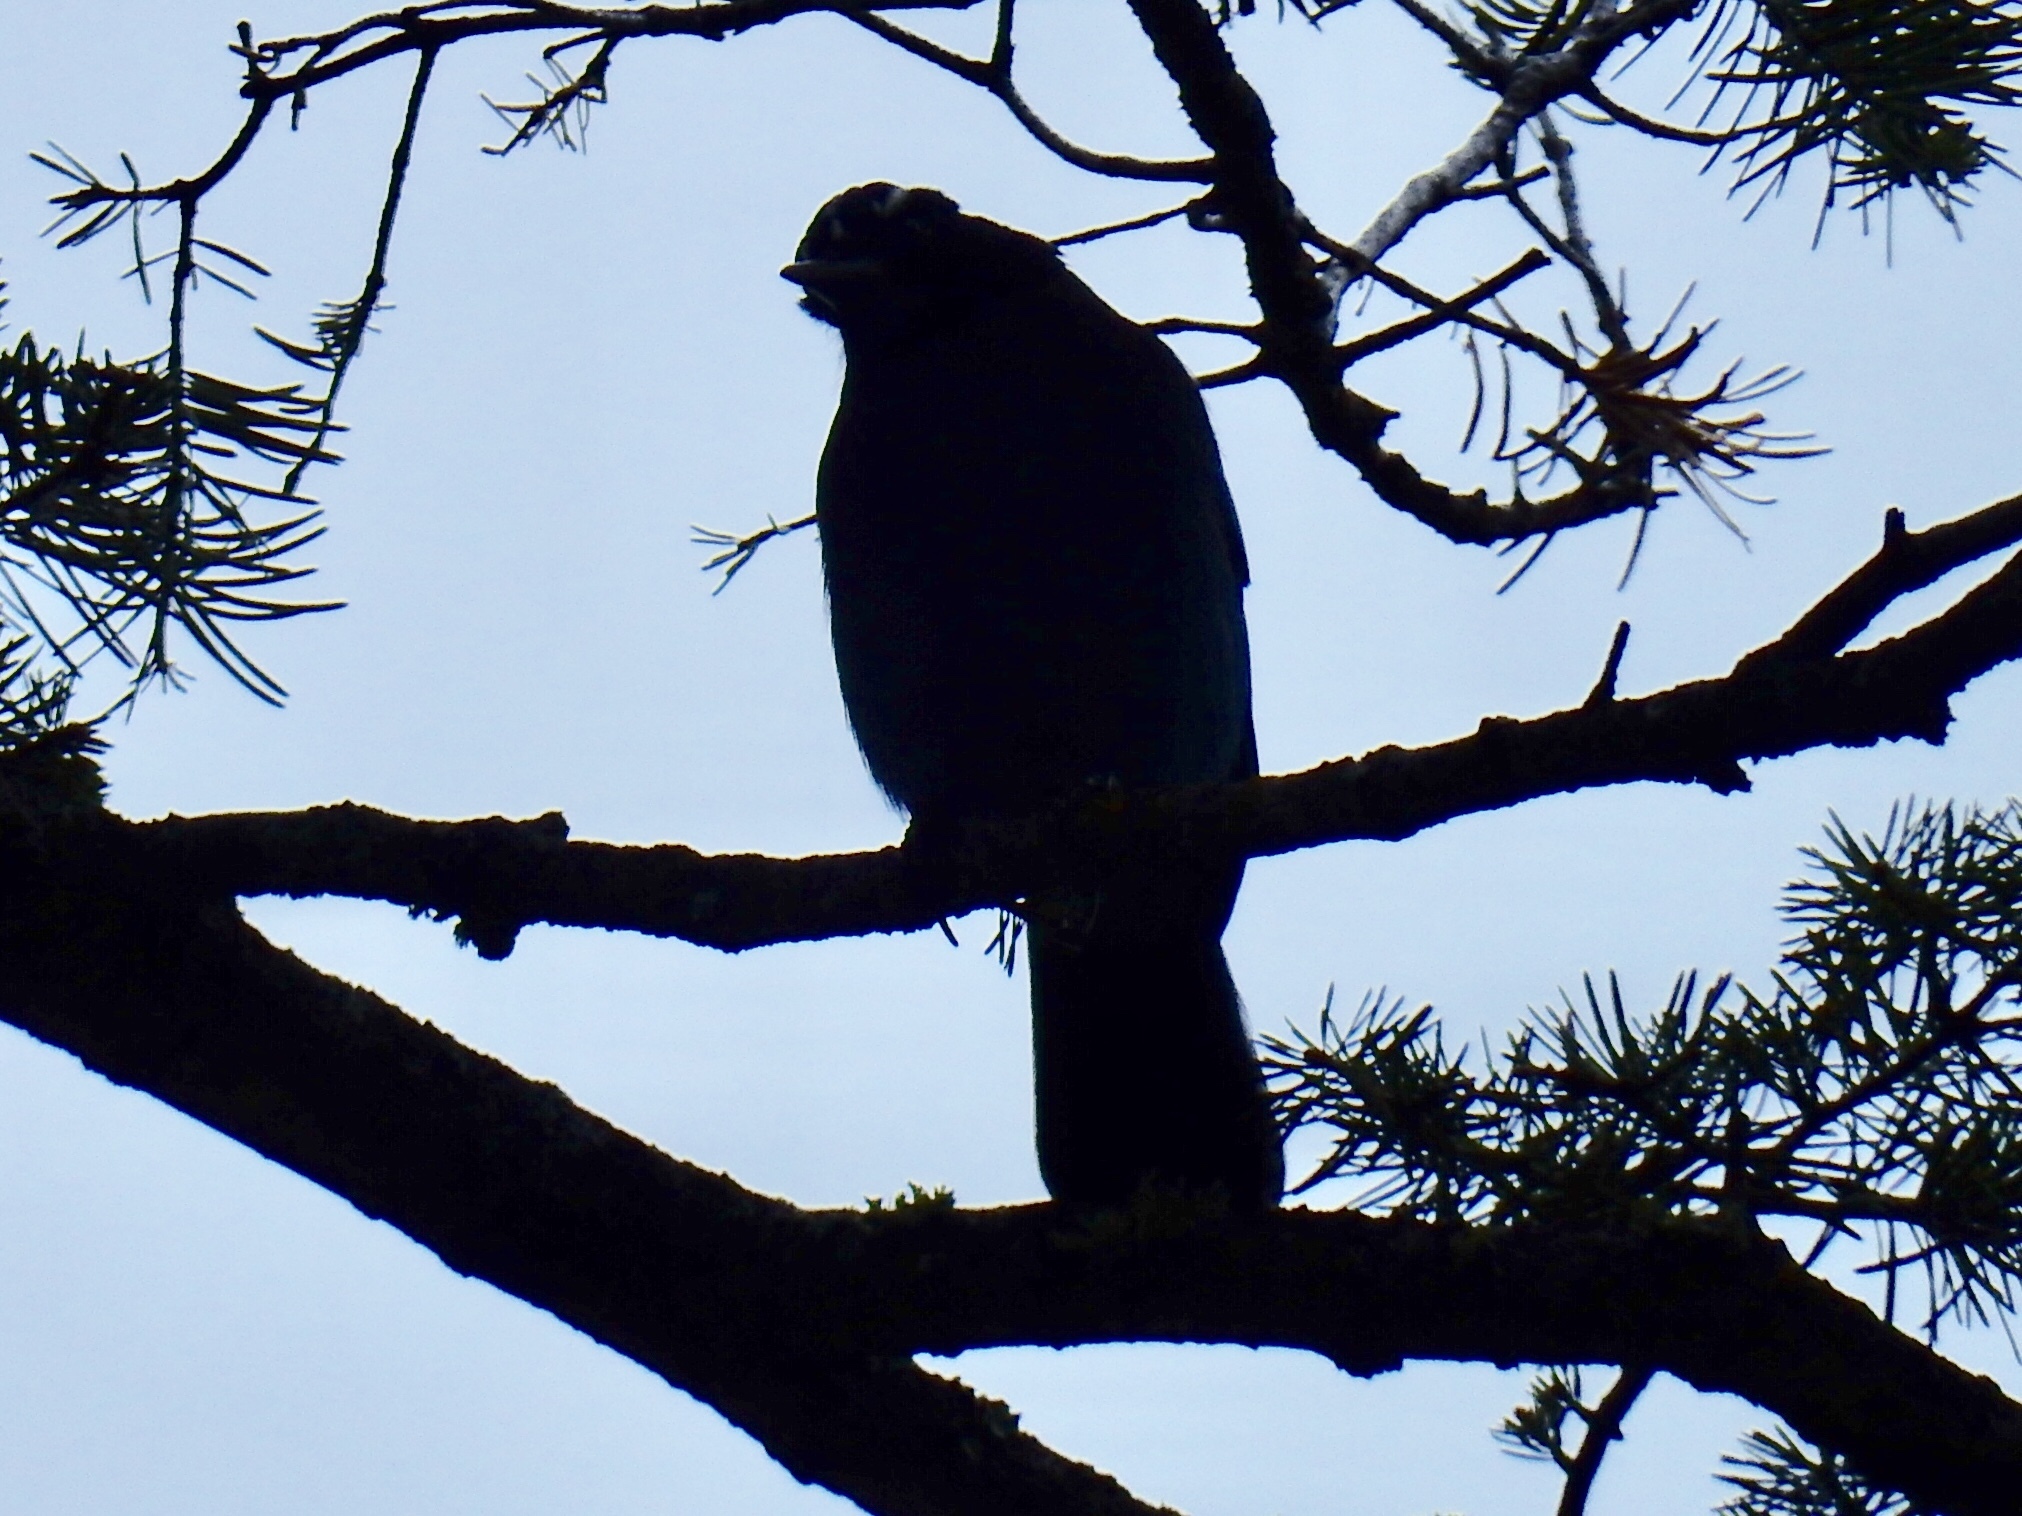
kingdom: Animalia
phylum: Chordata
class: Aves
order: Passeriformes
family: Corvidae
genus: Cyanocitta
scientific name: Cyanocitta stelleri
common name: Steller's jay
